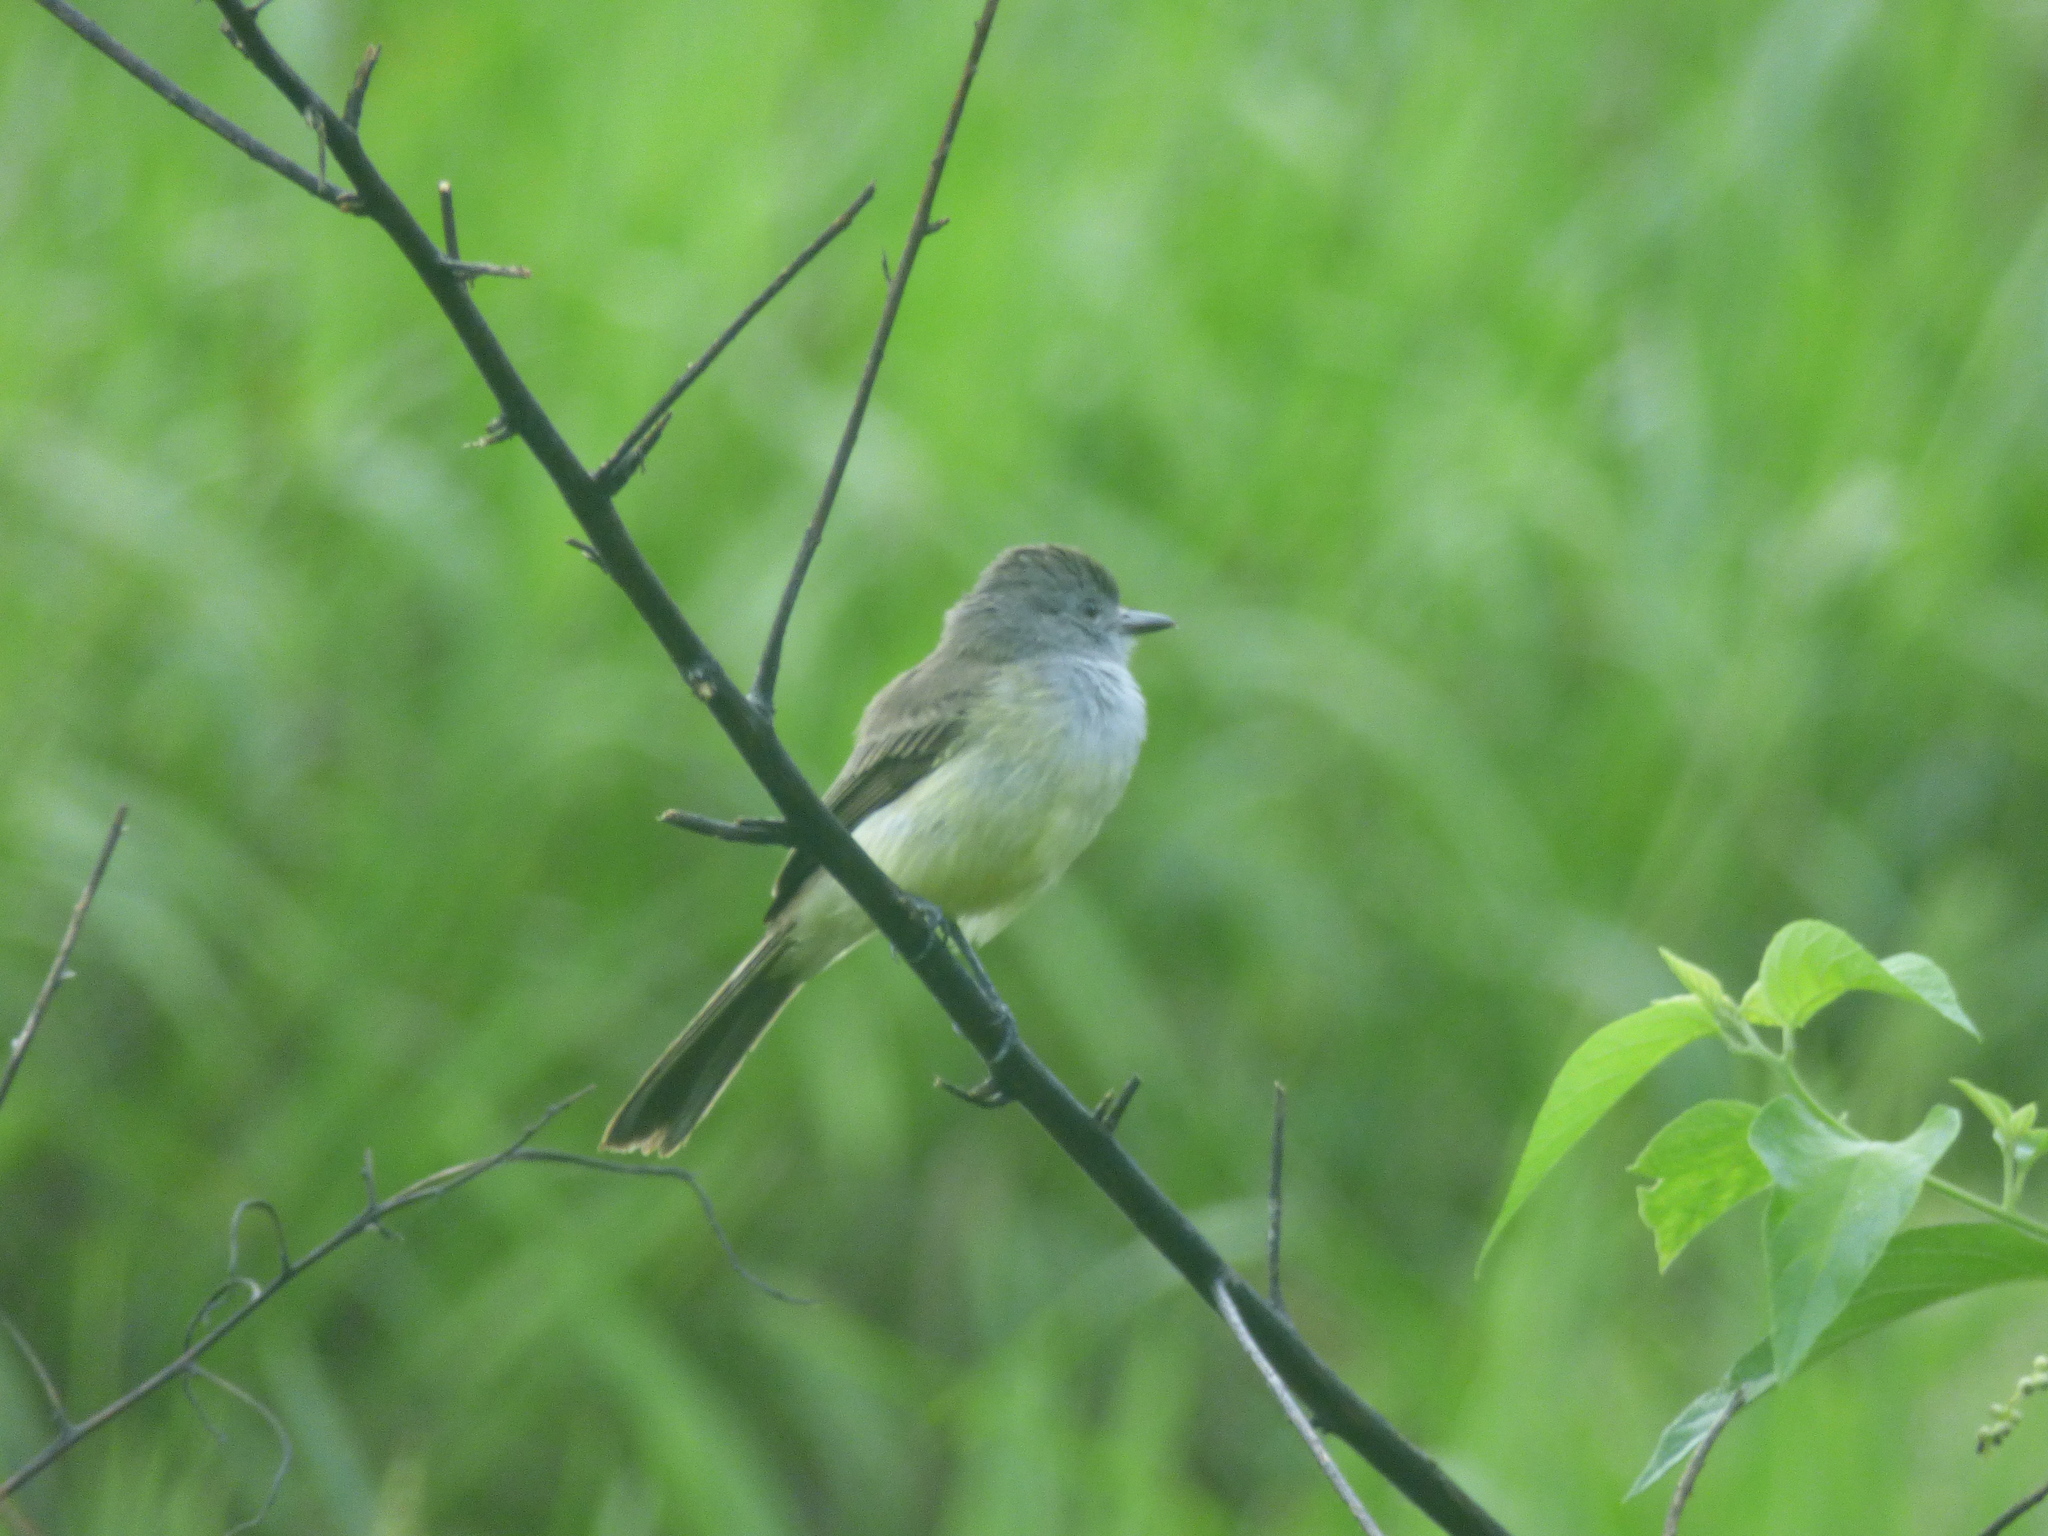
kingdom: Animalia
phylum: Chordata
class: Aves
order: Passeriformes
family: Tyrannidae
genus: Myiarchus
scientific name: Myiarchus panamensis
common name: Panama flycatcher
